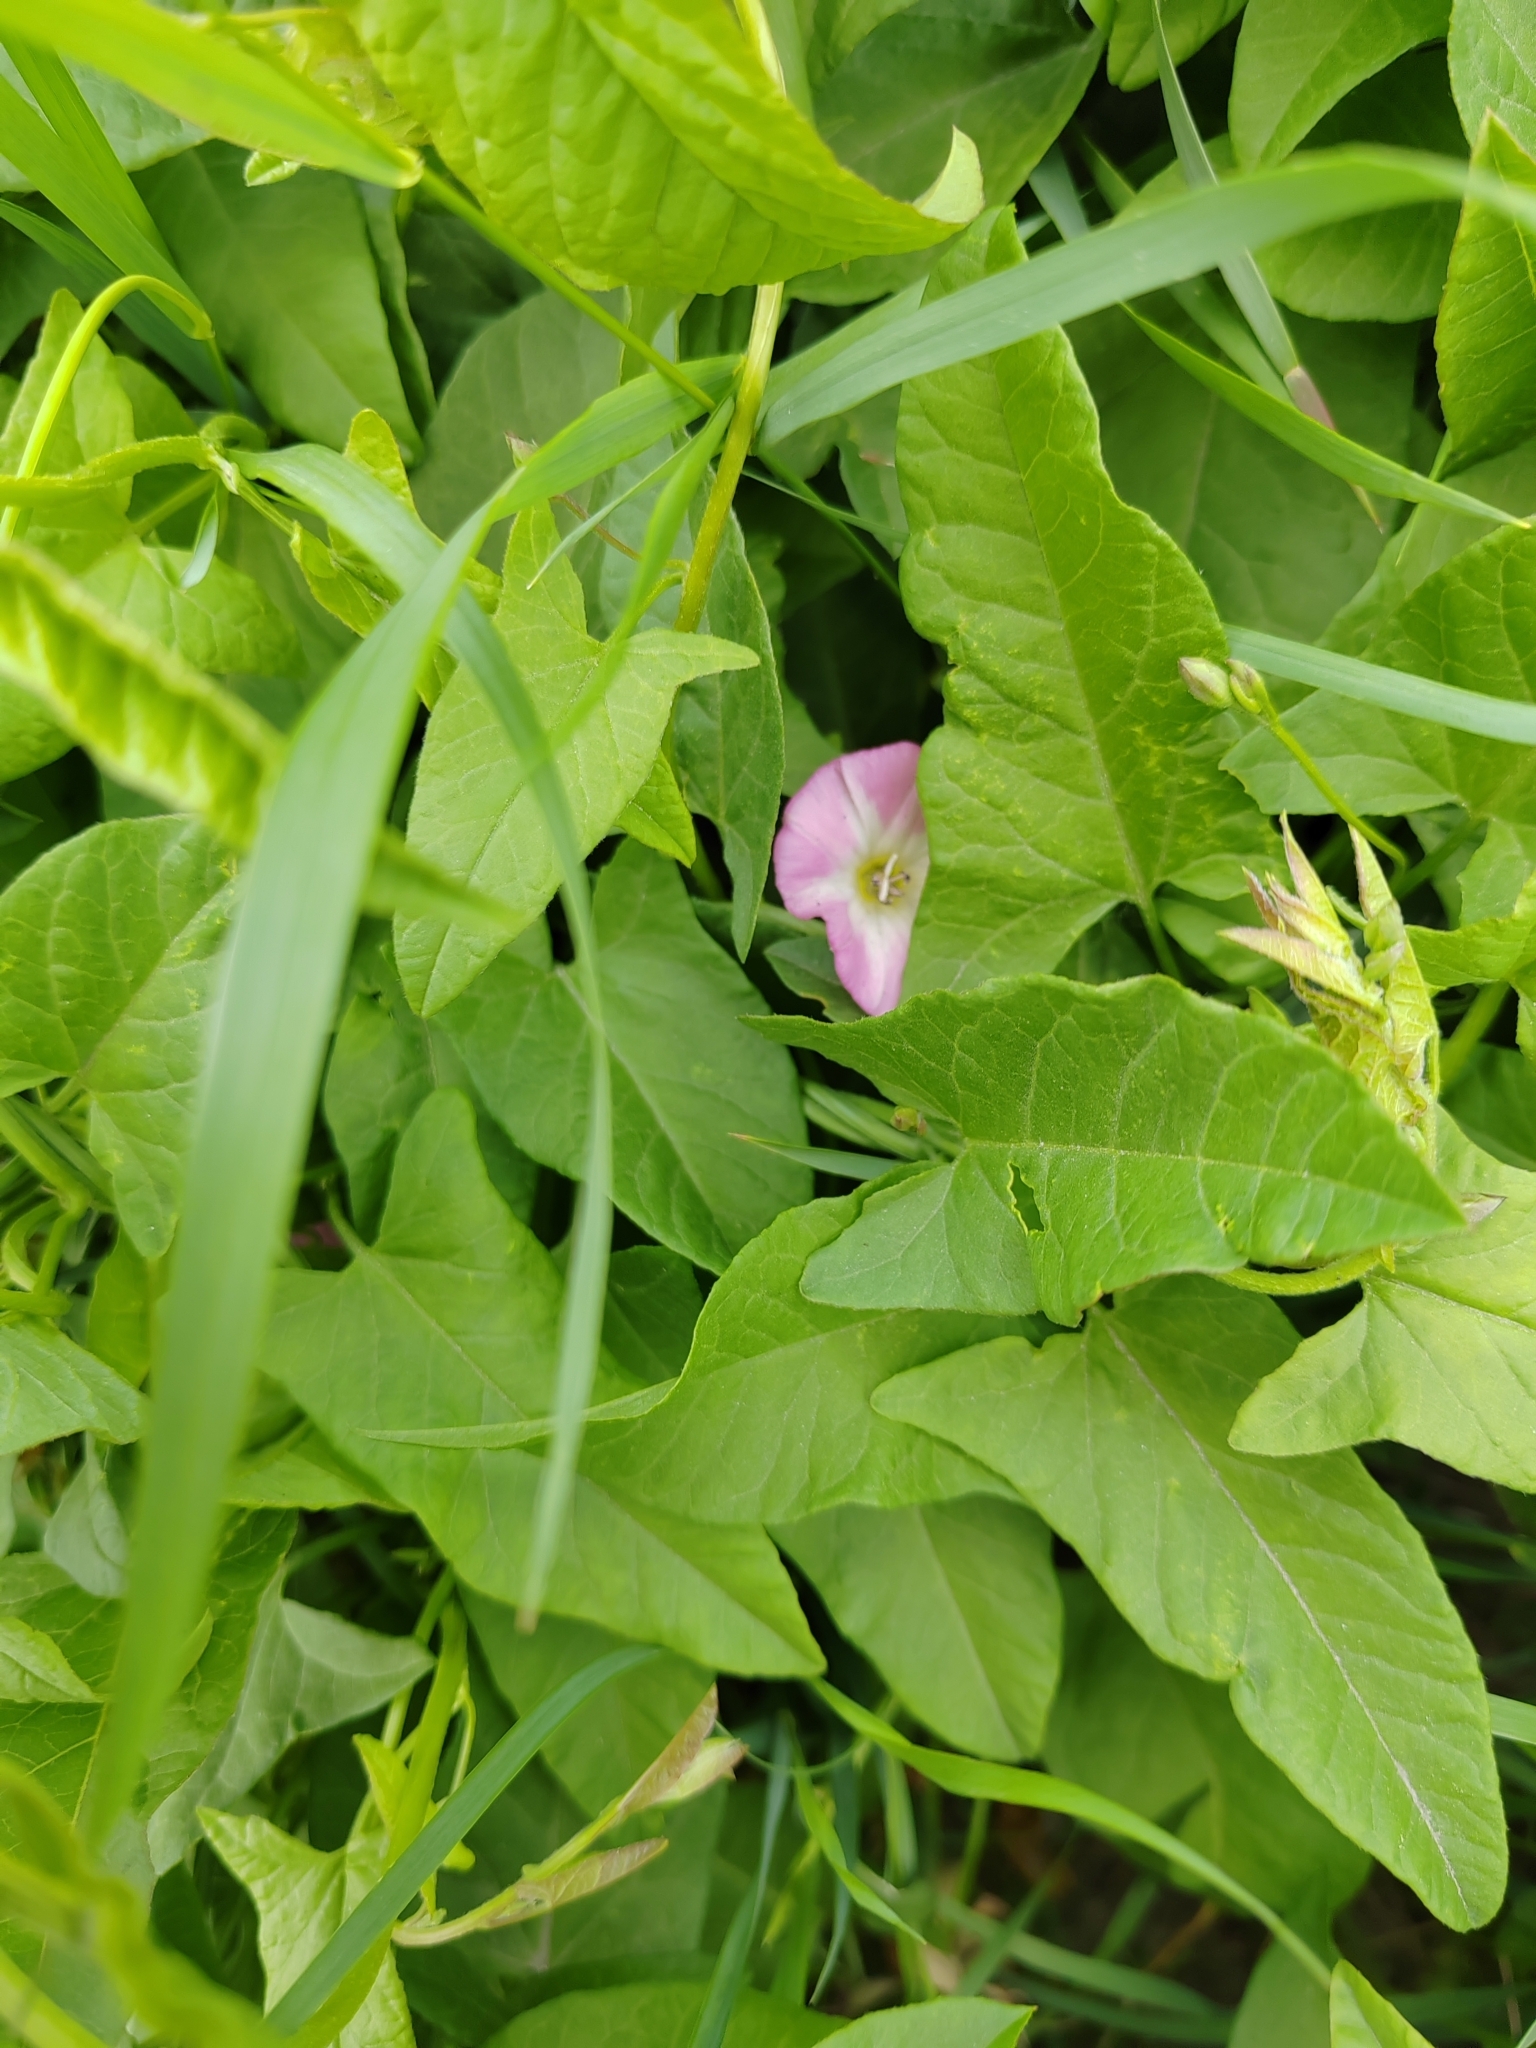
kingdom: Plantae
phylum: Tracheophyta
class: Magnoliopsida
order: Solanales
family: Convolvulaceae
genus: Convolvulus
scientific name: Convolvulus arvensis
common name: Field bindweed
